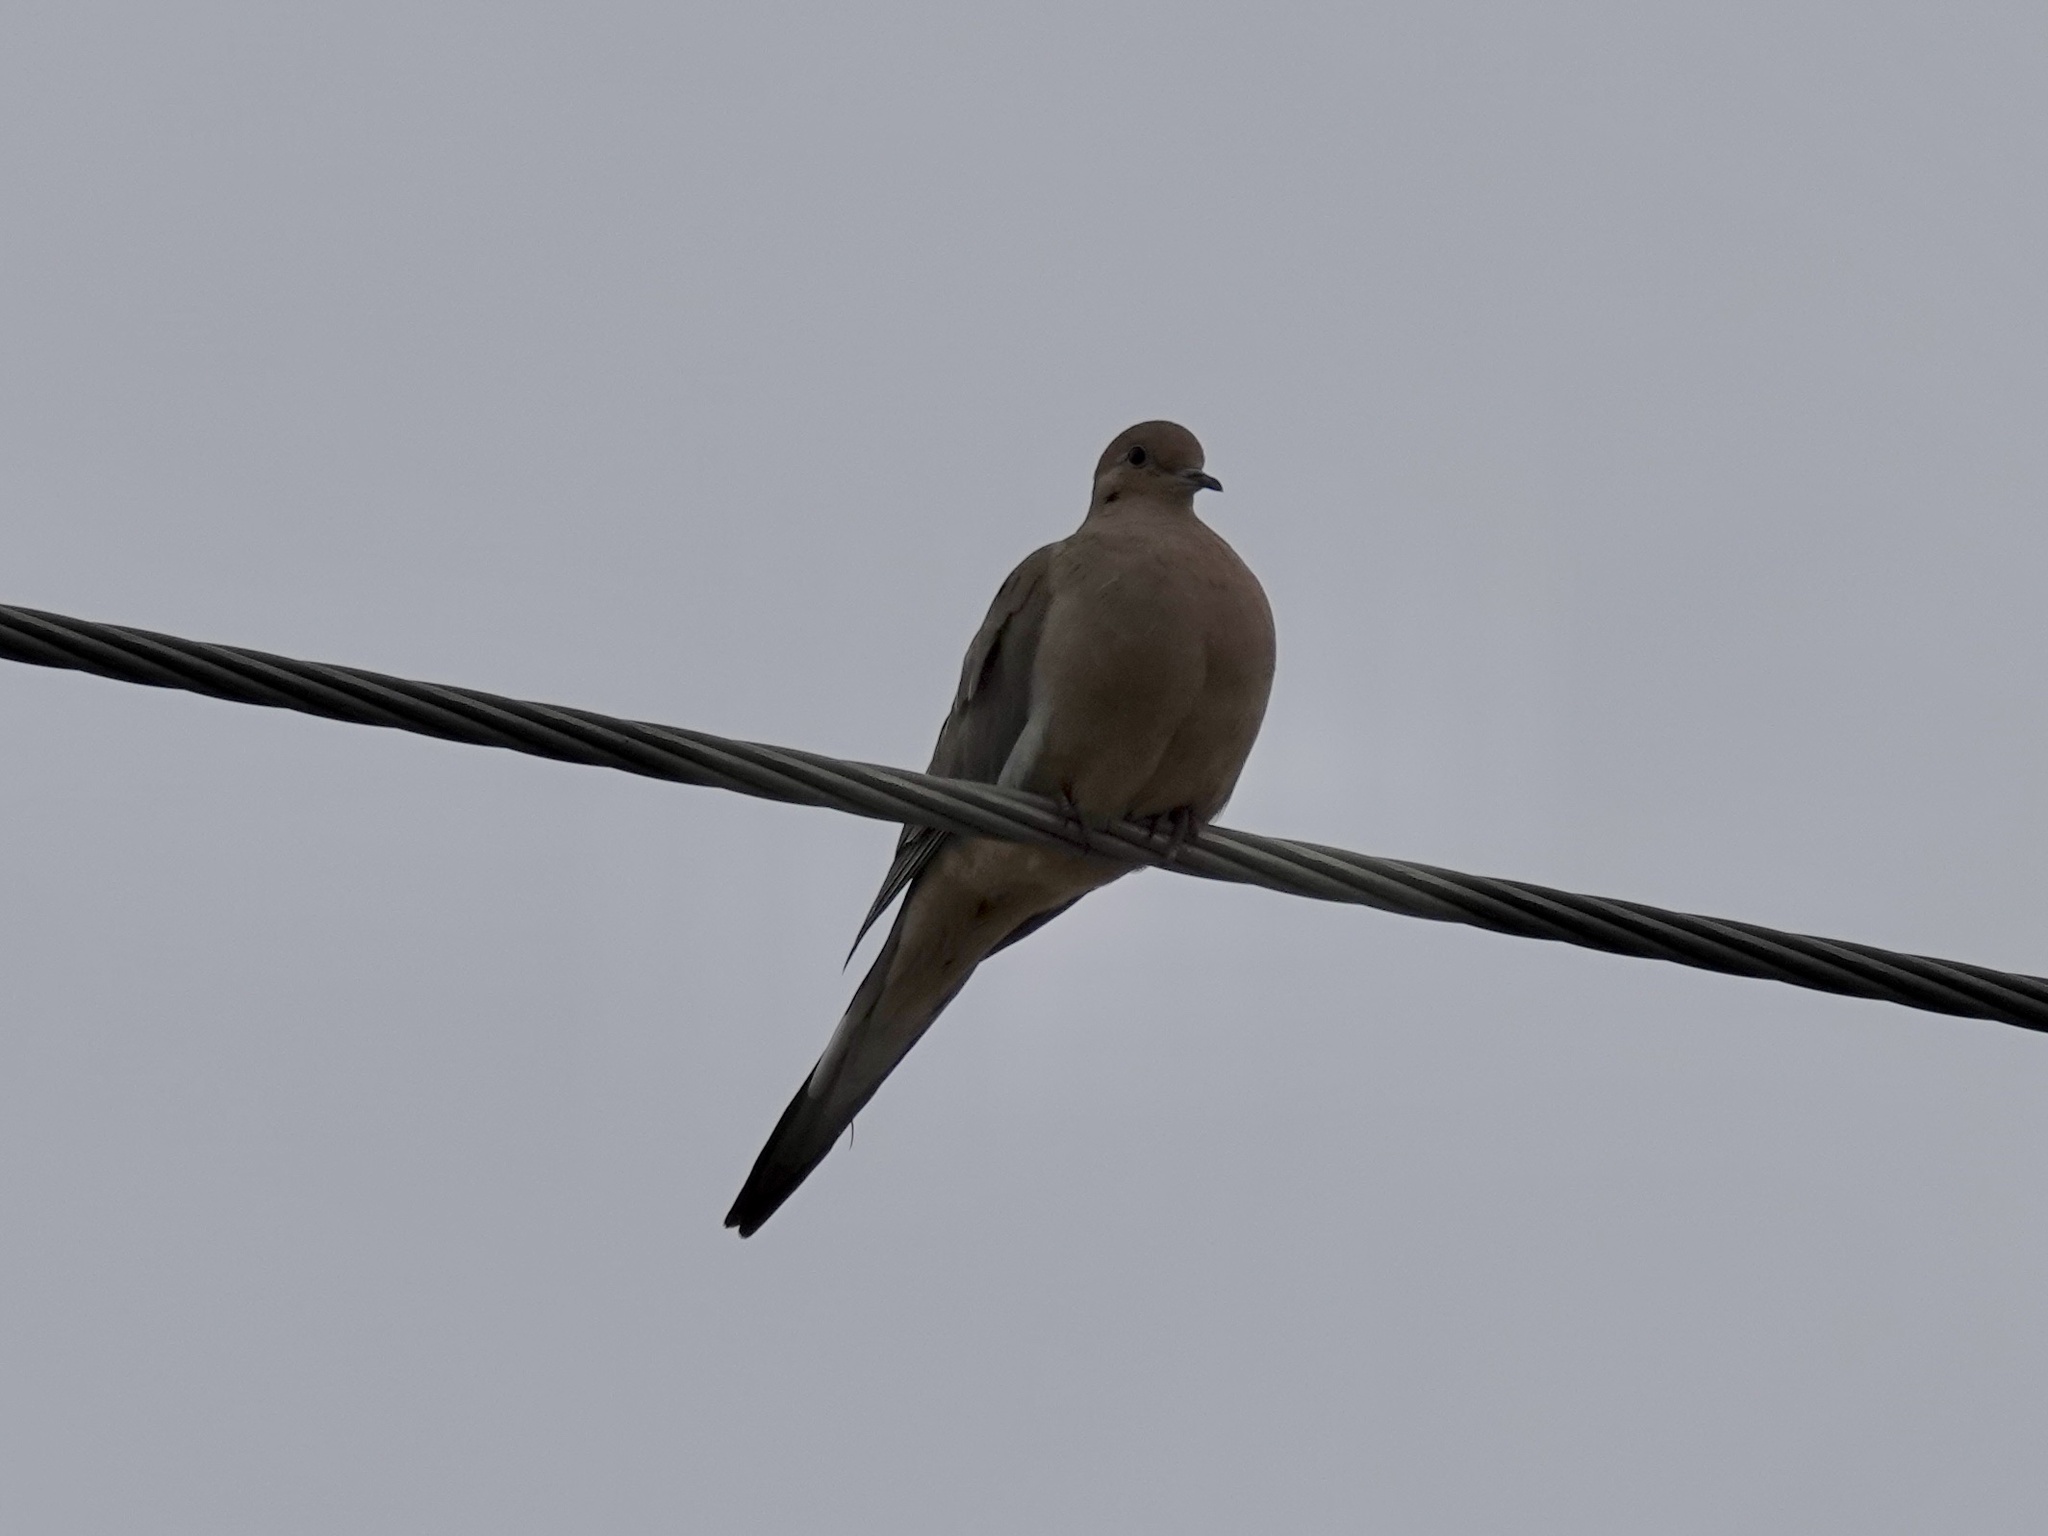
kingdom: Animalia
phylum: Chordata
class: Aves
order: Columbiformes
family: Columbidae
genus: Zenaida
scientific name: Zenaida macroura
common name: Mourning dove
